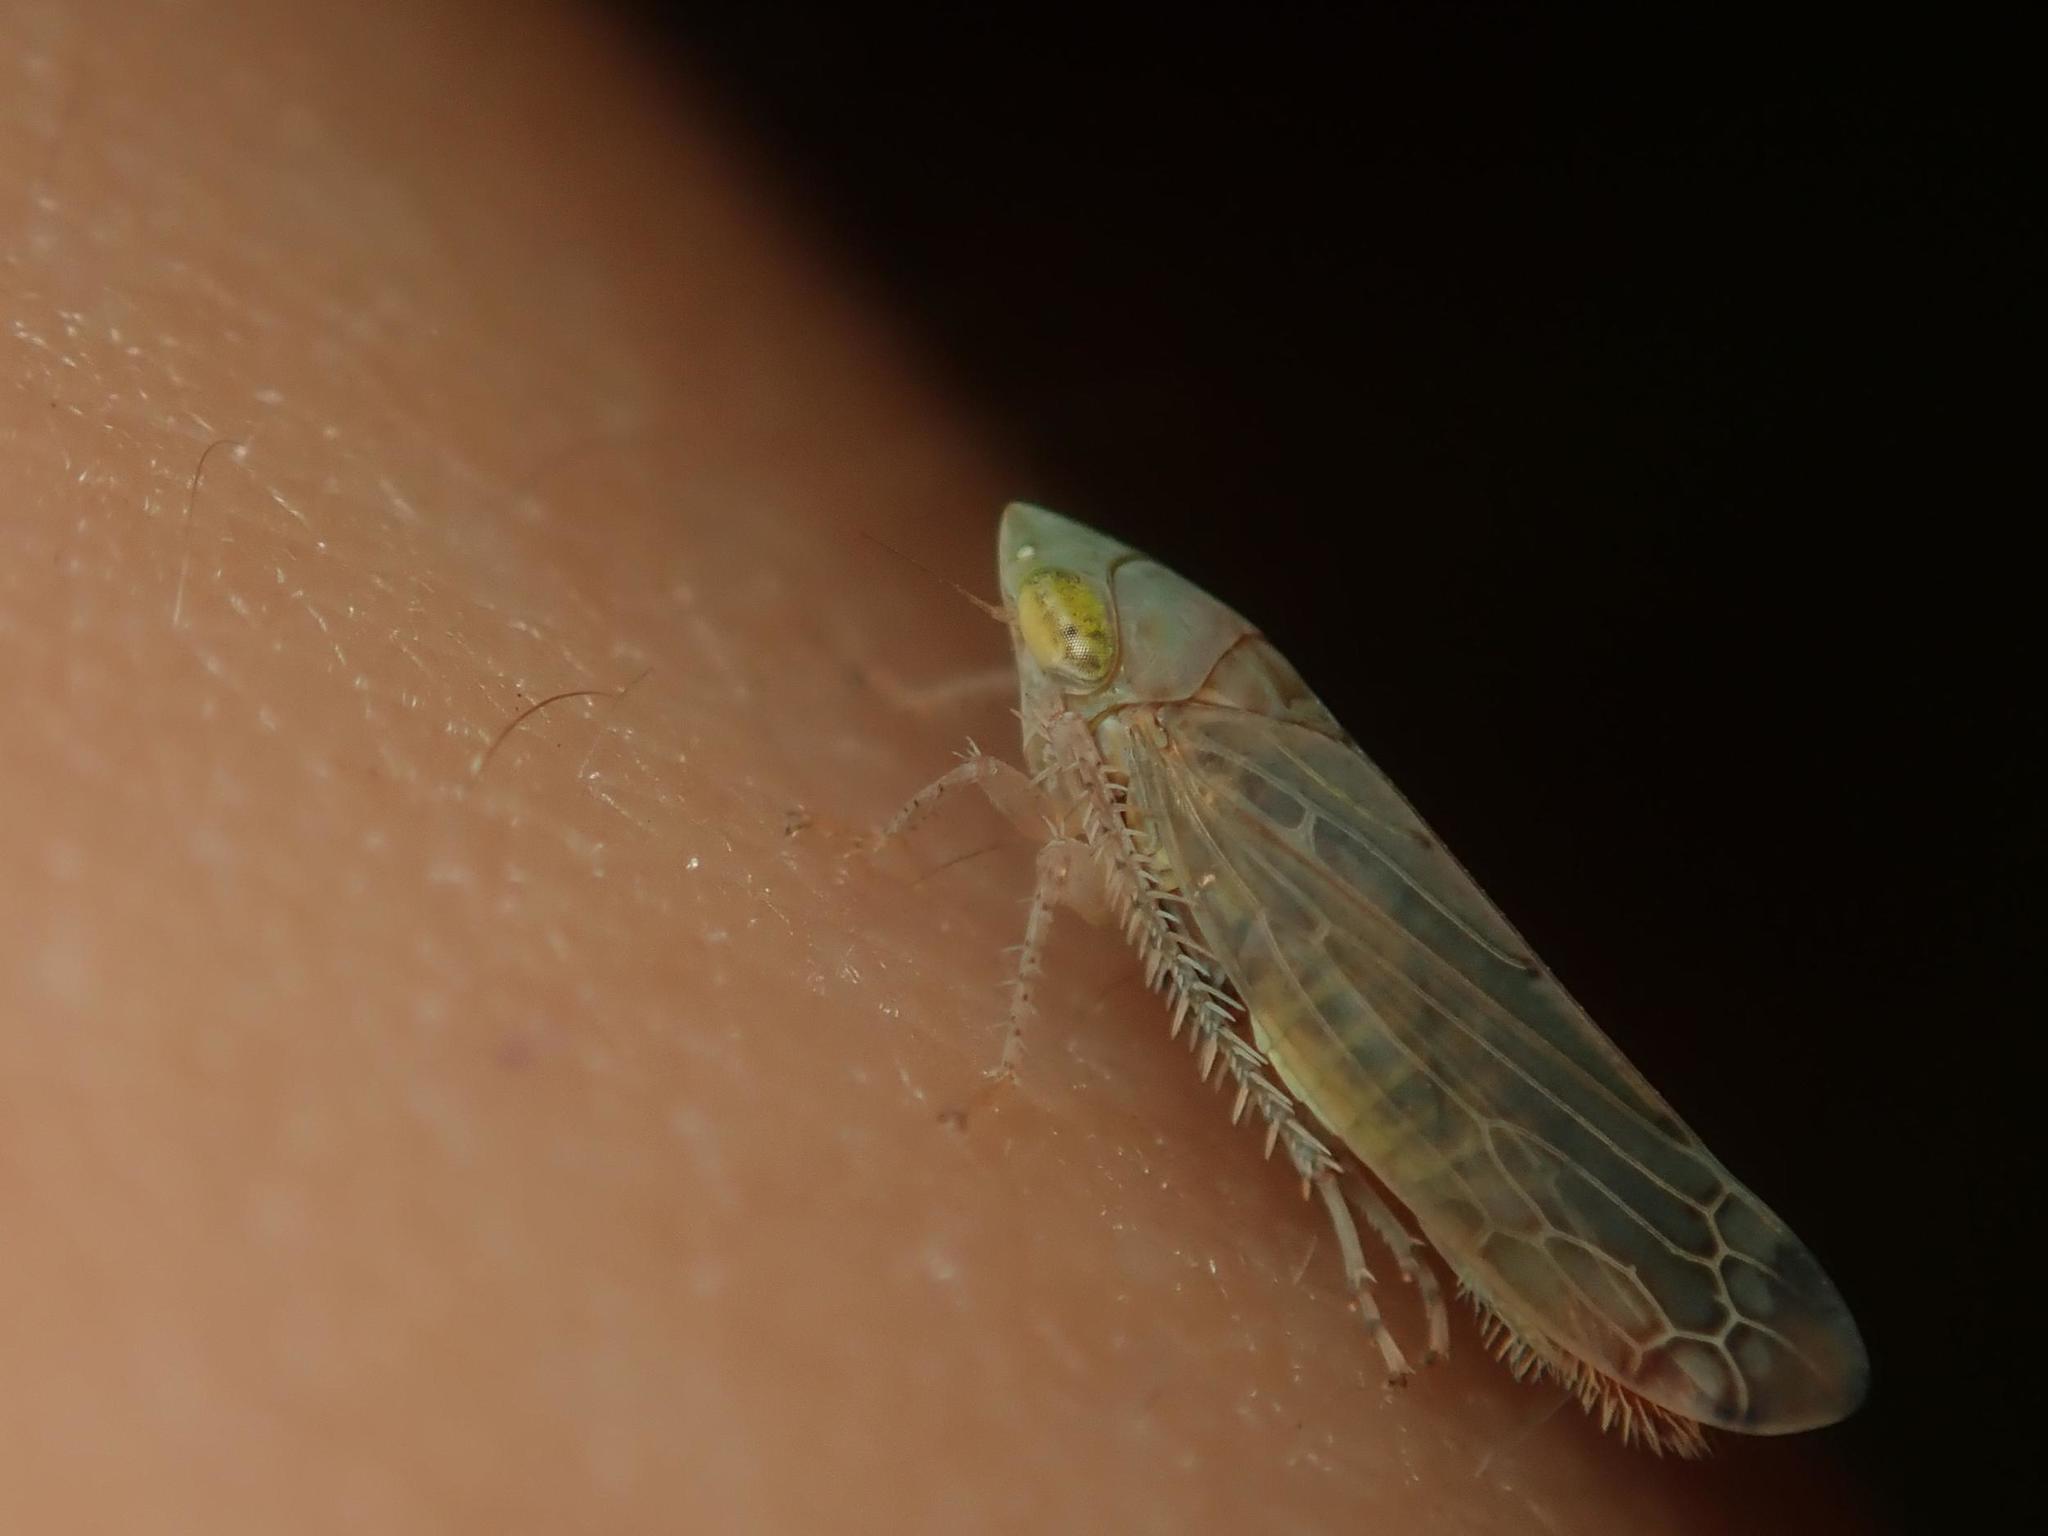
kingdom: Animalia
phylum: Arthropoda
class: Insecta
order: Hemiptera
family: Cicadellidae
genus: Synophropsis
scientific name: Synophropsis lauri
